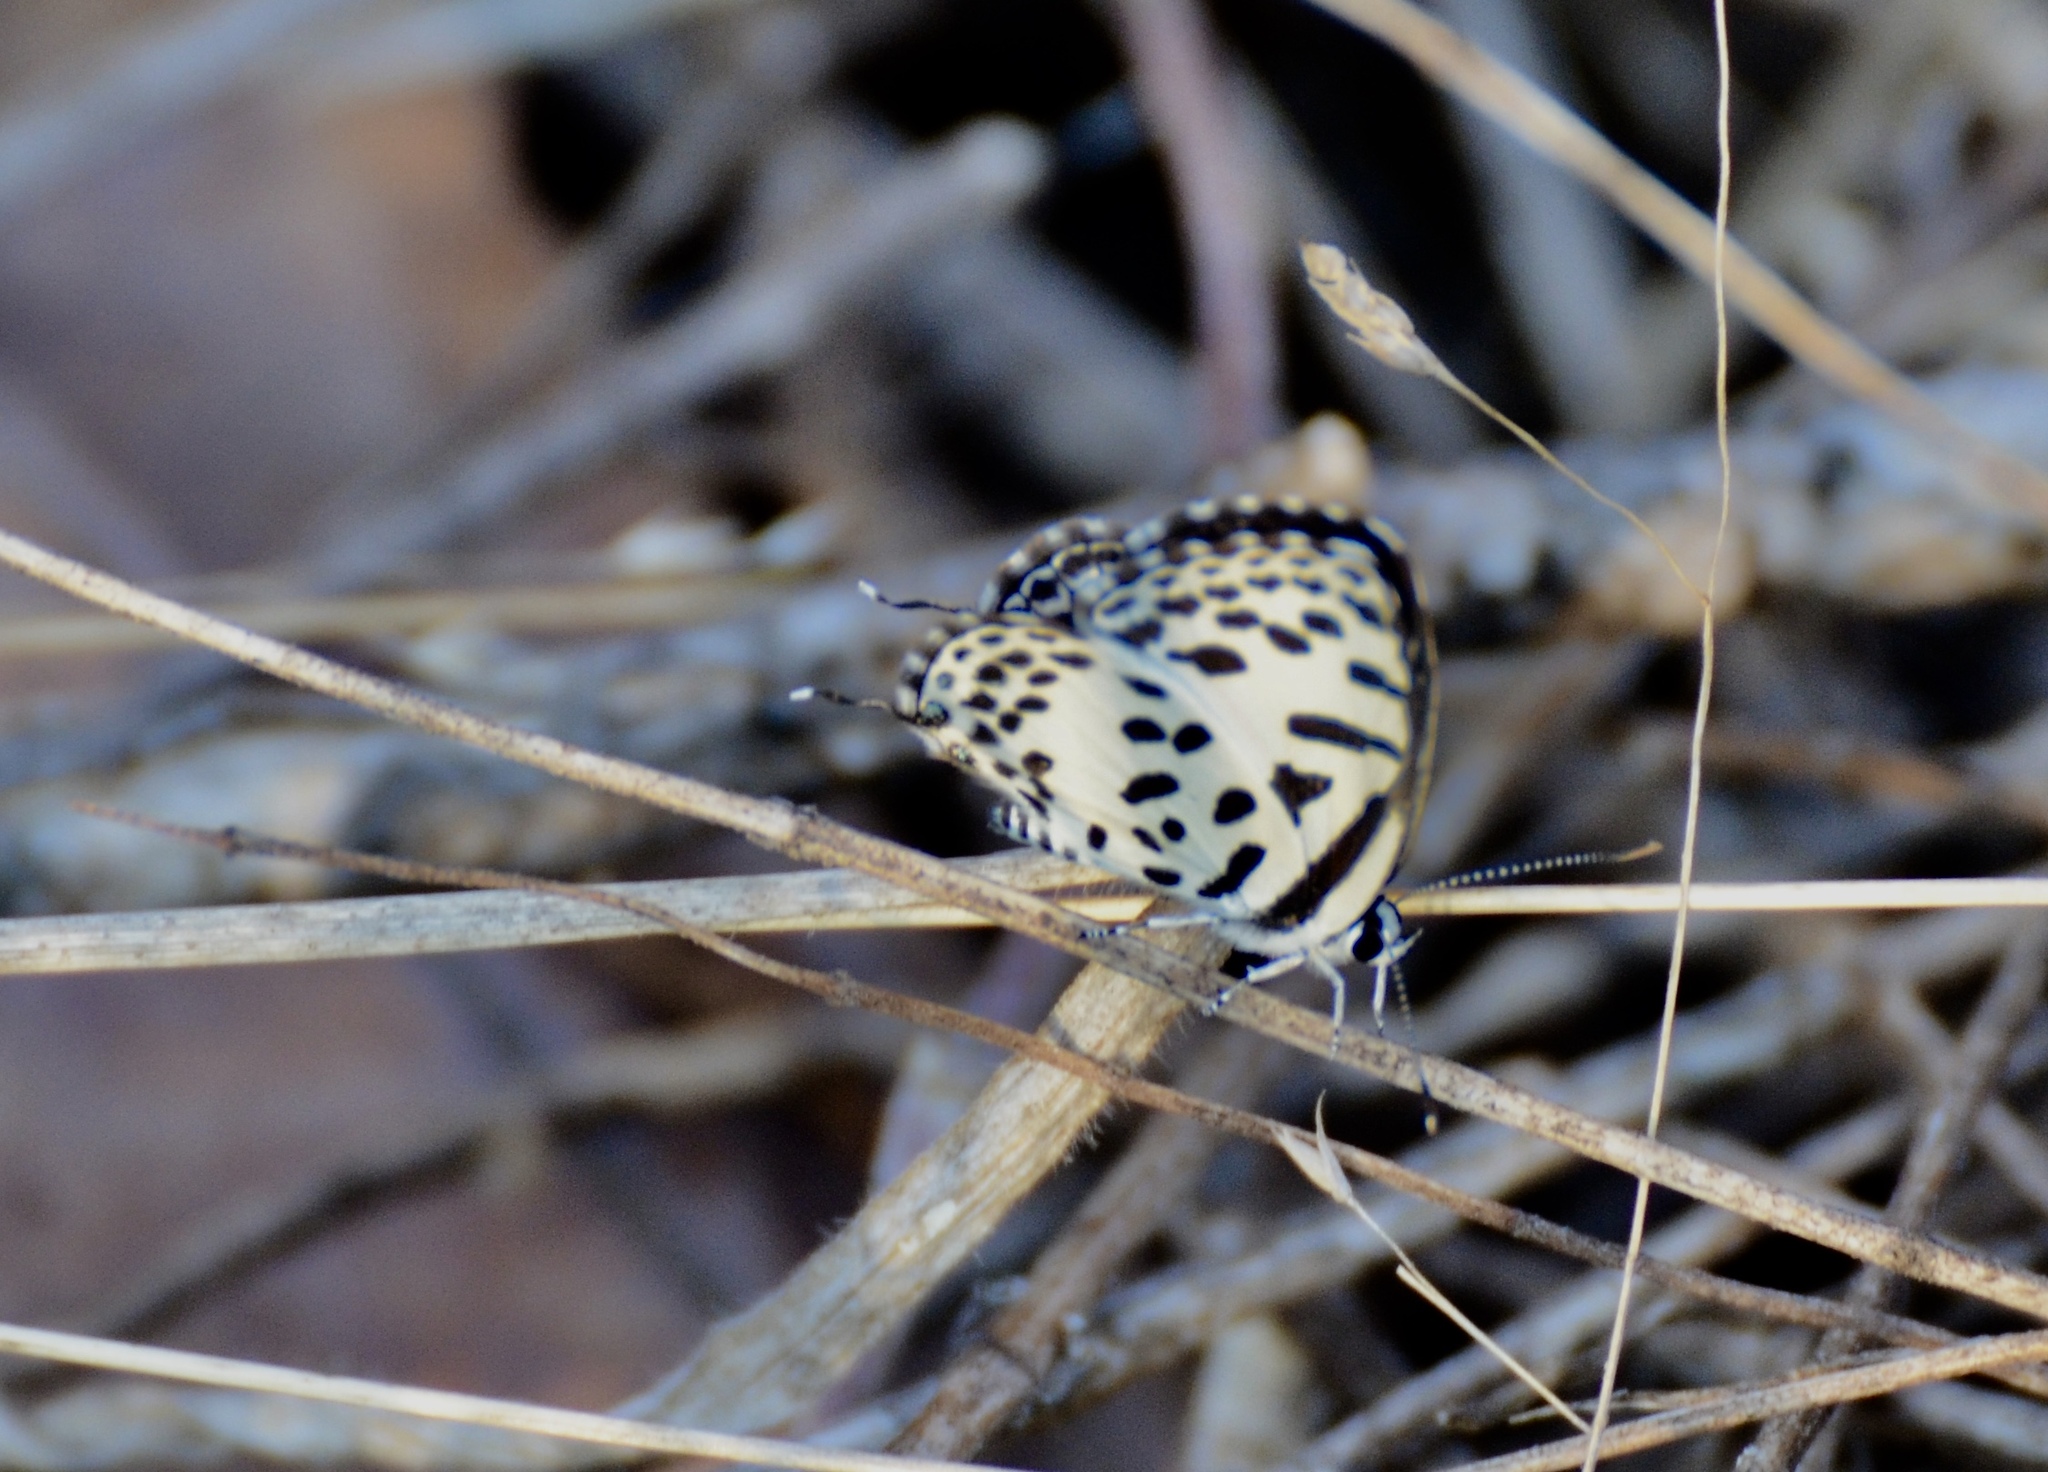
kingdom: Animalia
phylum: Arthropoda
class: Insecta
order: Lepidoptera
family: Lycaenidae
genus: Castalius
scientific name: Castalius rosimon
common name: Common pierrot
